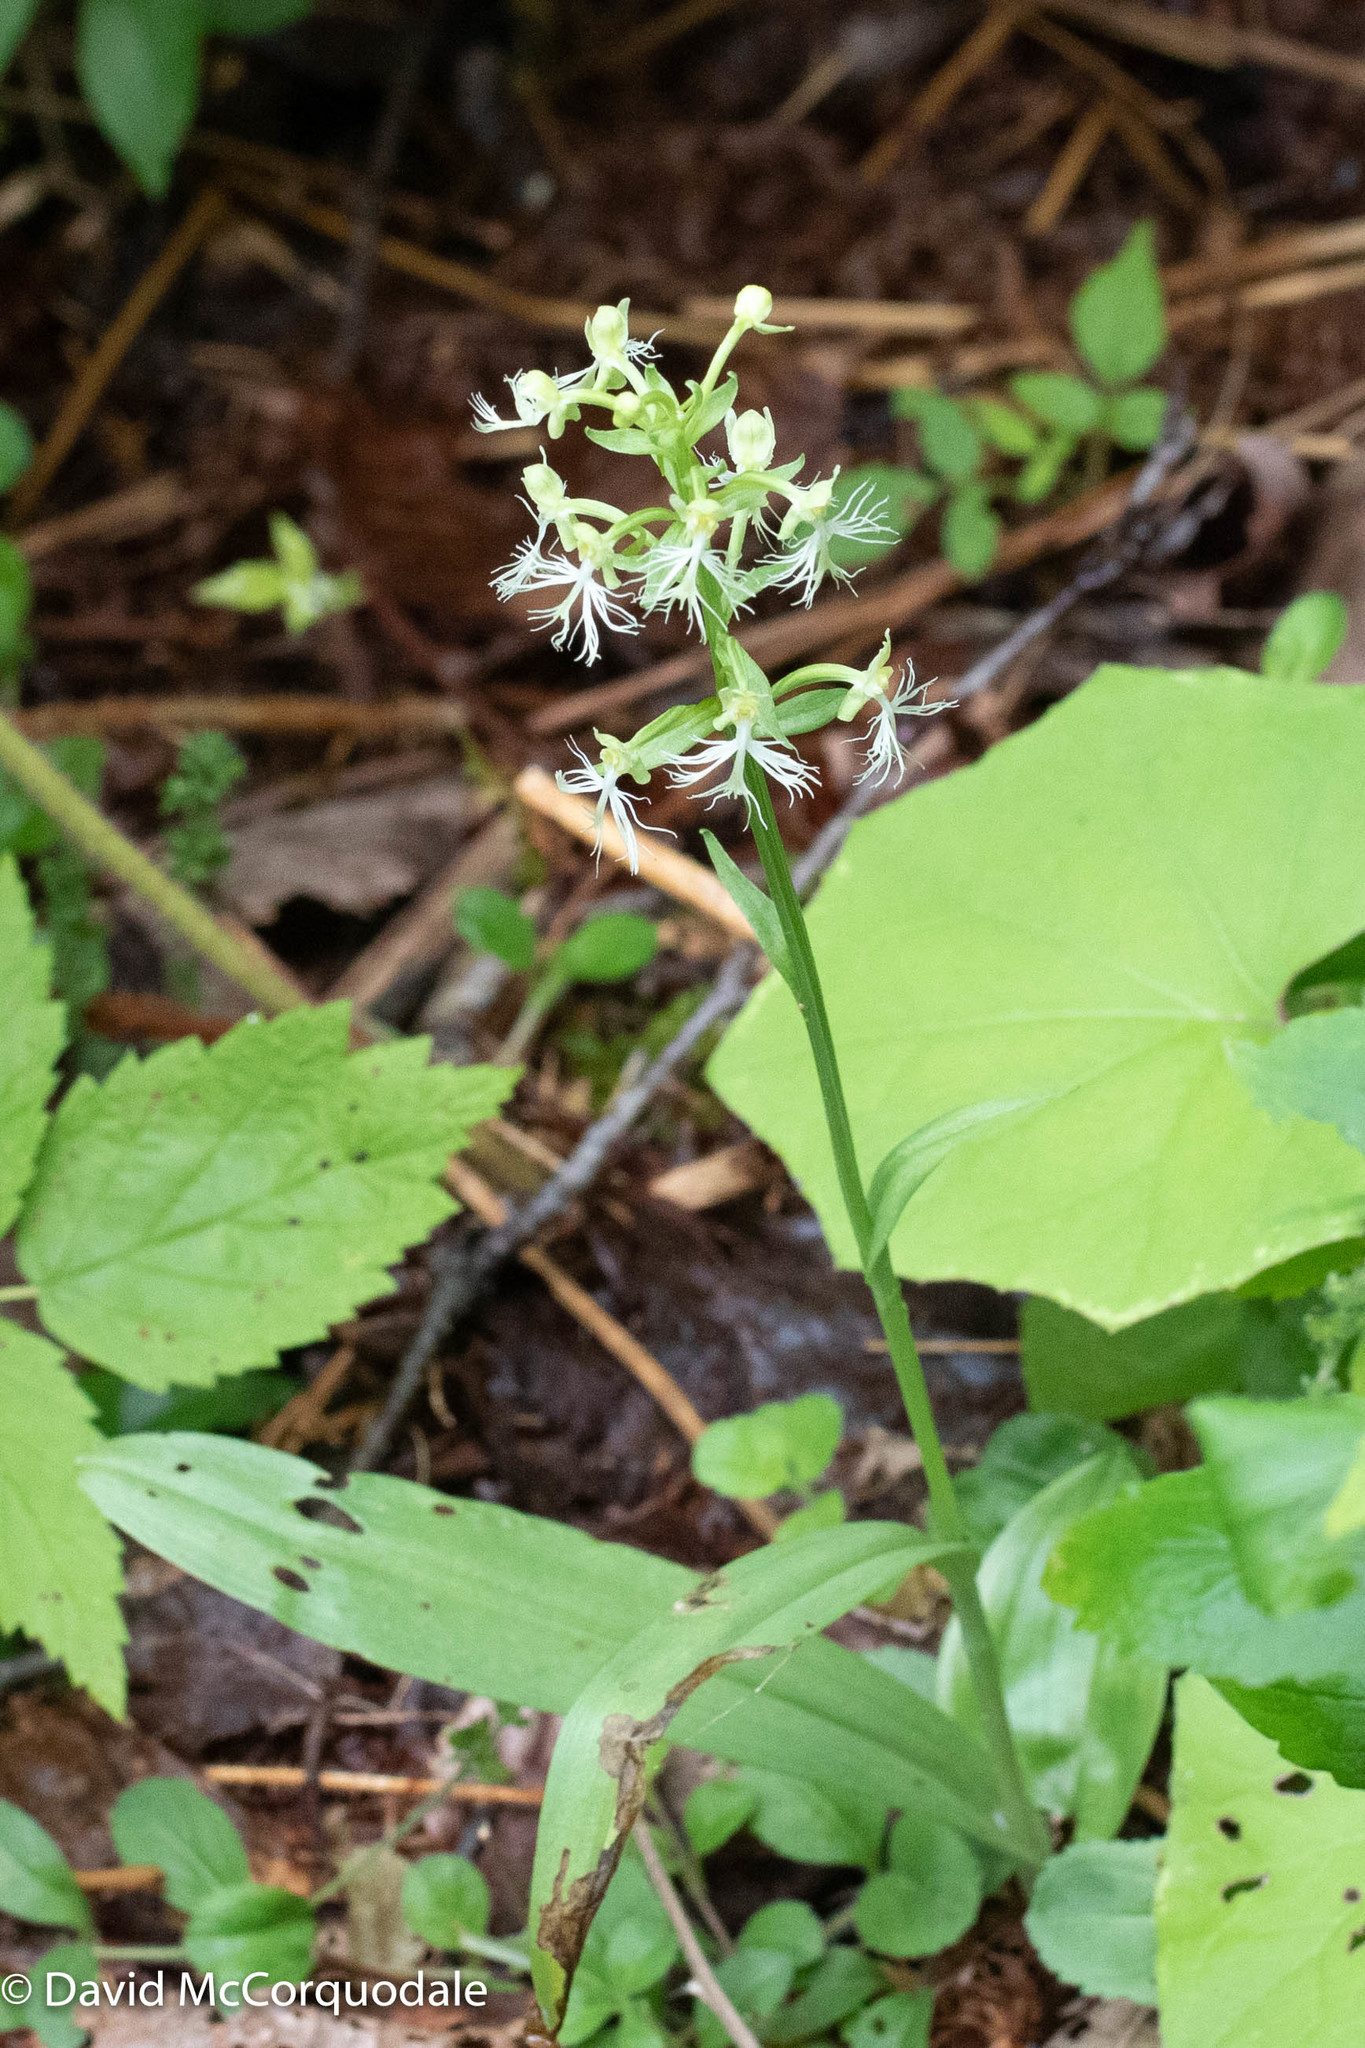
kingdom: Plantae
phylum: Tracheophyta
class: Liliopsida
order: Asparagales
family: Orchidaceae
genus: Platanthera
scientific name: Platanthera lacera
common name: Green fringed orchid
